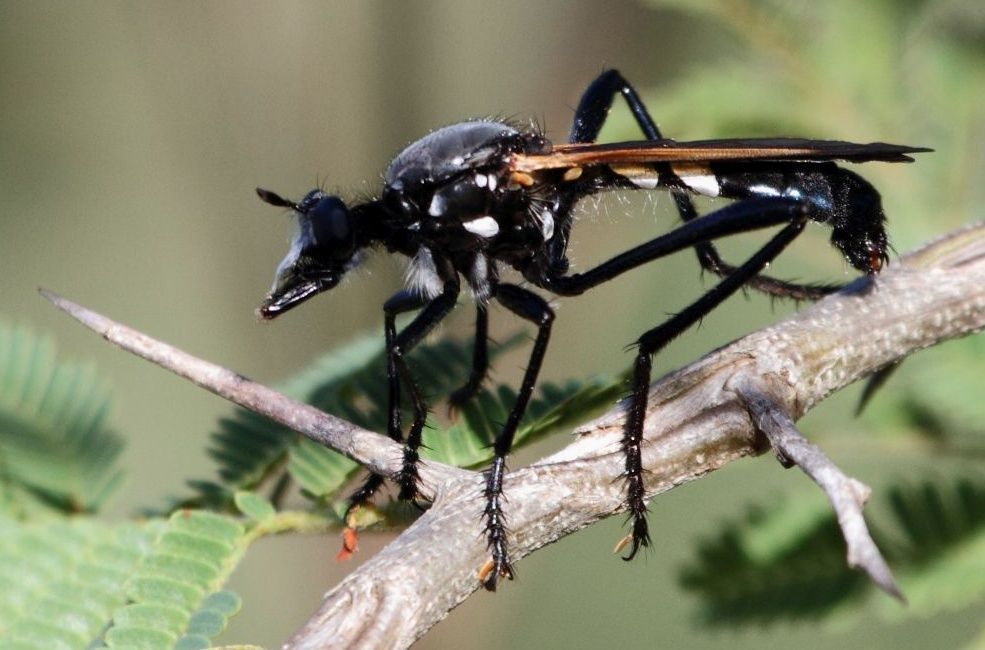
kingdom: Animalia
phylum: Arthropoda
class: Insecta
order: Diptera
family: Asilidae
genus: Lamyra
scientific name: Lamyra gulo
